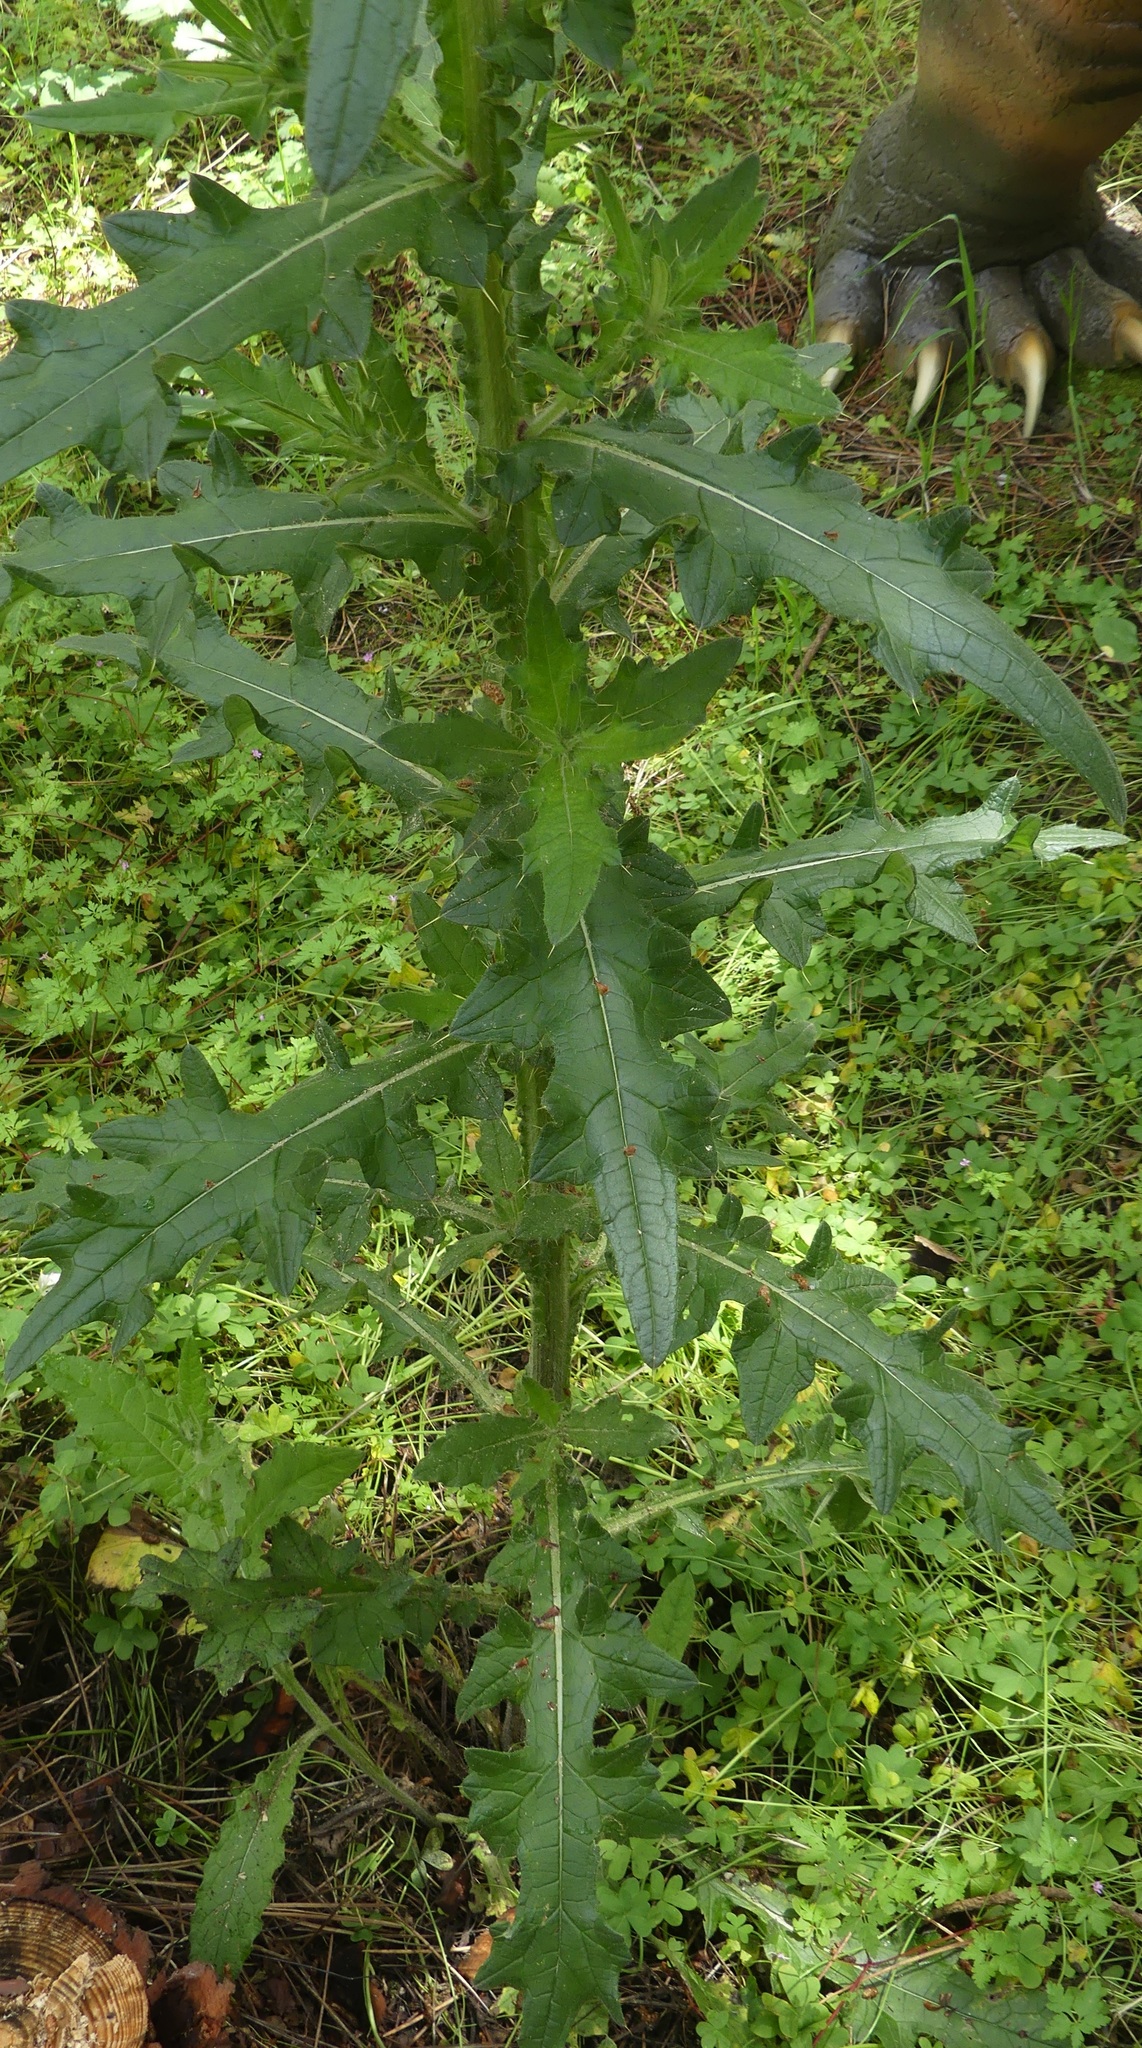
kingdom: Plantae
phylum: Tracheophyta
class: Magnoliopsida
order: Asterales
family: Asteraceae
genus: Cirsium
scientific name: Cirsium vulgare
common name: Bull thistle
